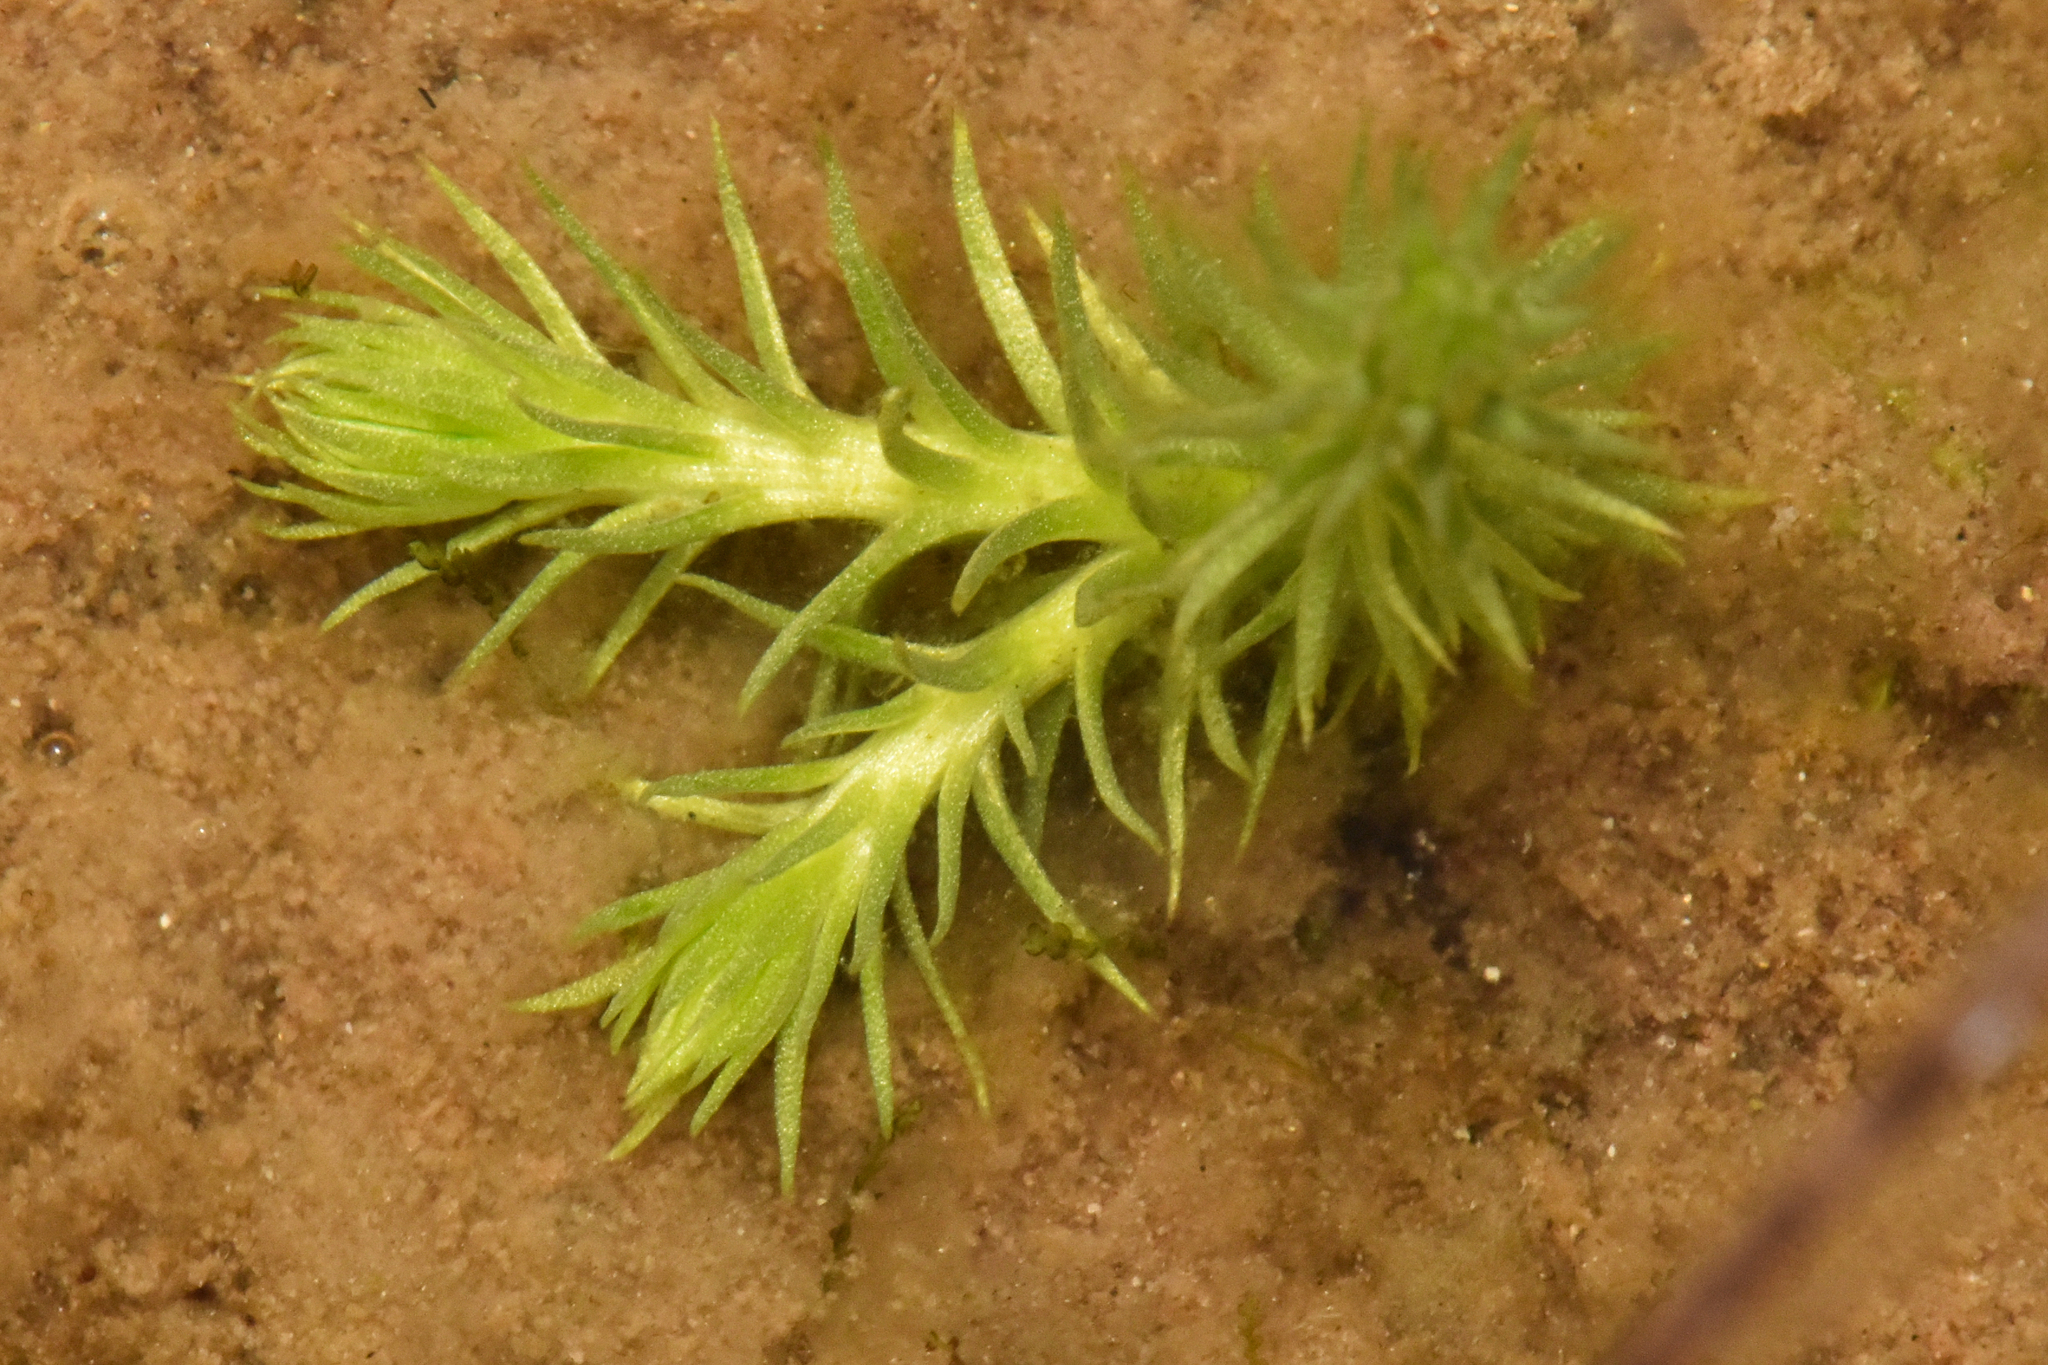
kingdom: Plantae
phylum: Tracheophyta
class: Lycopodiopsida
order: Lycopodiales
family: Lycopodiaceae
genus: Lycopodiella
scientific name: Lycopodiella inundata
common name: Marsh clubmoss
